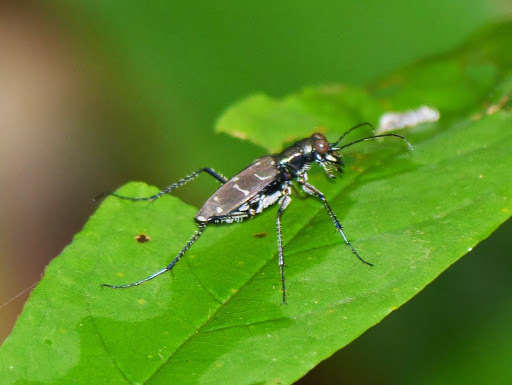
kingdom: Animalia
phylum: Arthropoda
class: Insecta
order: Coleoptera
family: Carabidae
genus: Cicindela
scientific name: Cicindela interrupta
